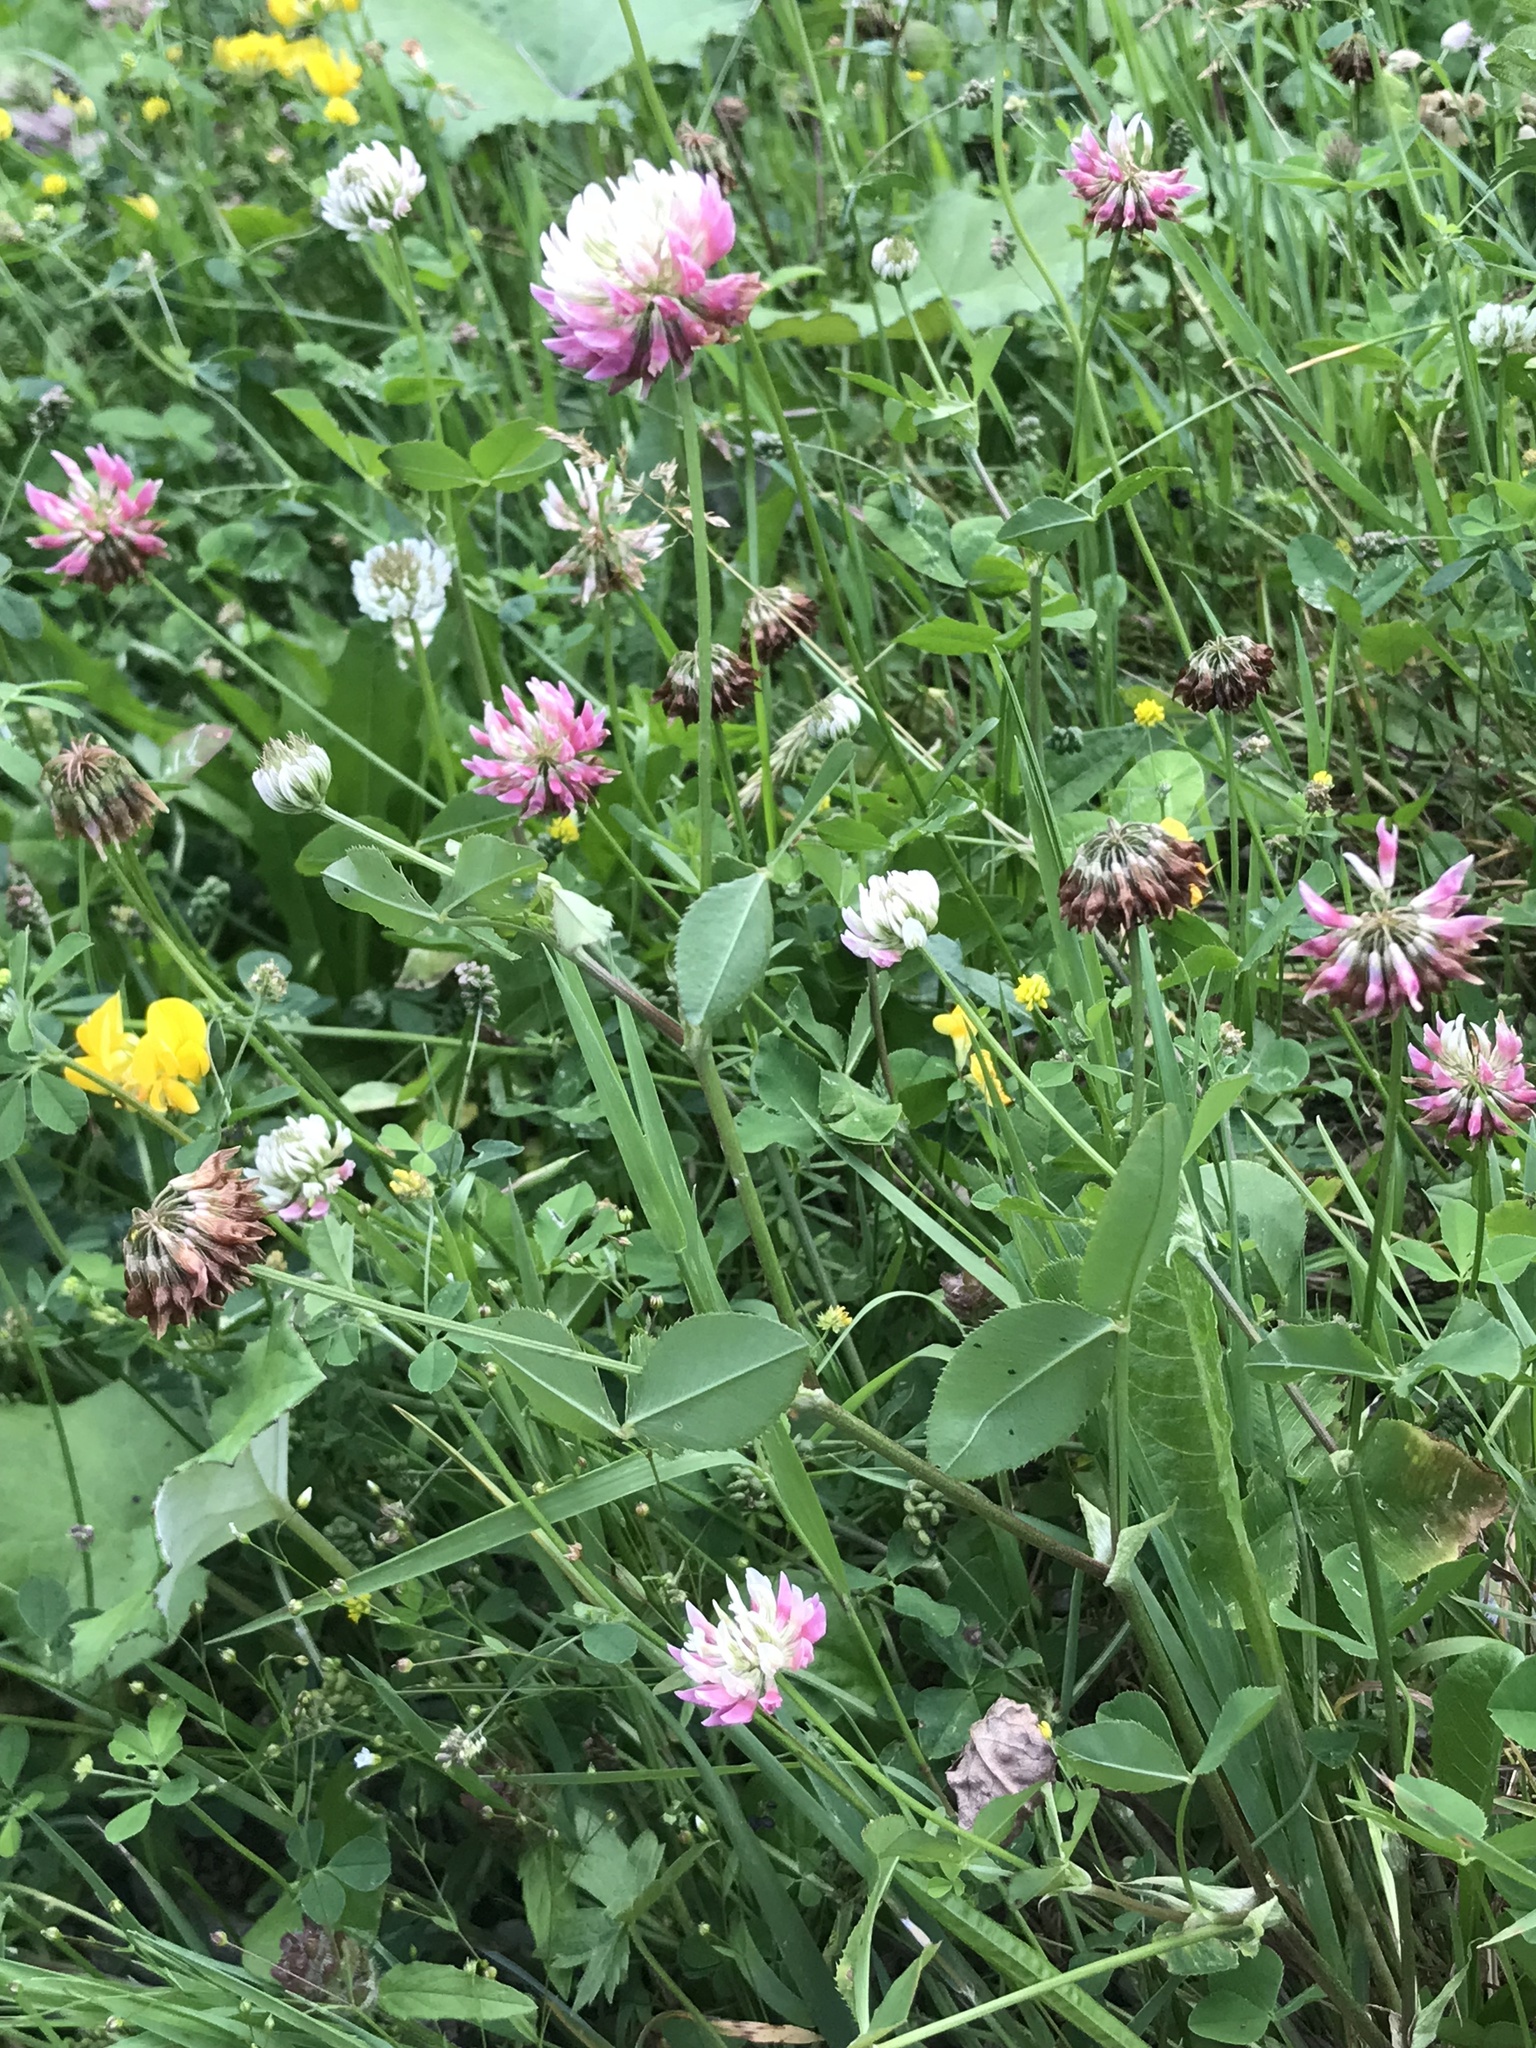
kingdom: Plantae
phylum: Tracheophyta
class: Magnoliopsida
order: Fabales
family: Fabaceae
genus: Trifolium
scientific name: Trifolium hybridum
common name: Alsike clover
